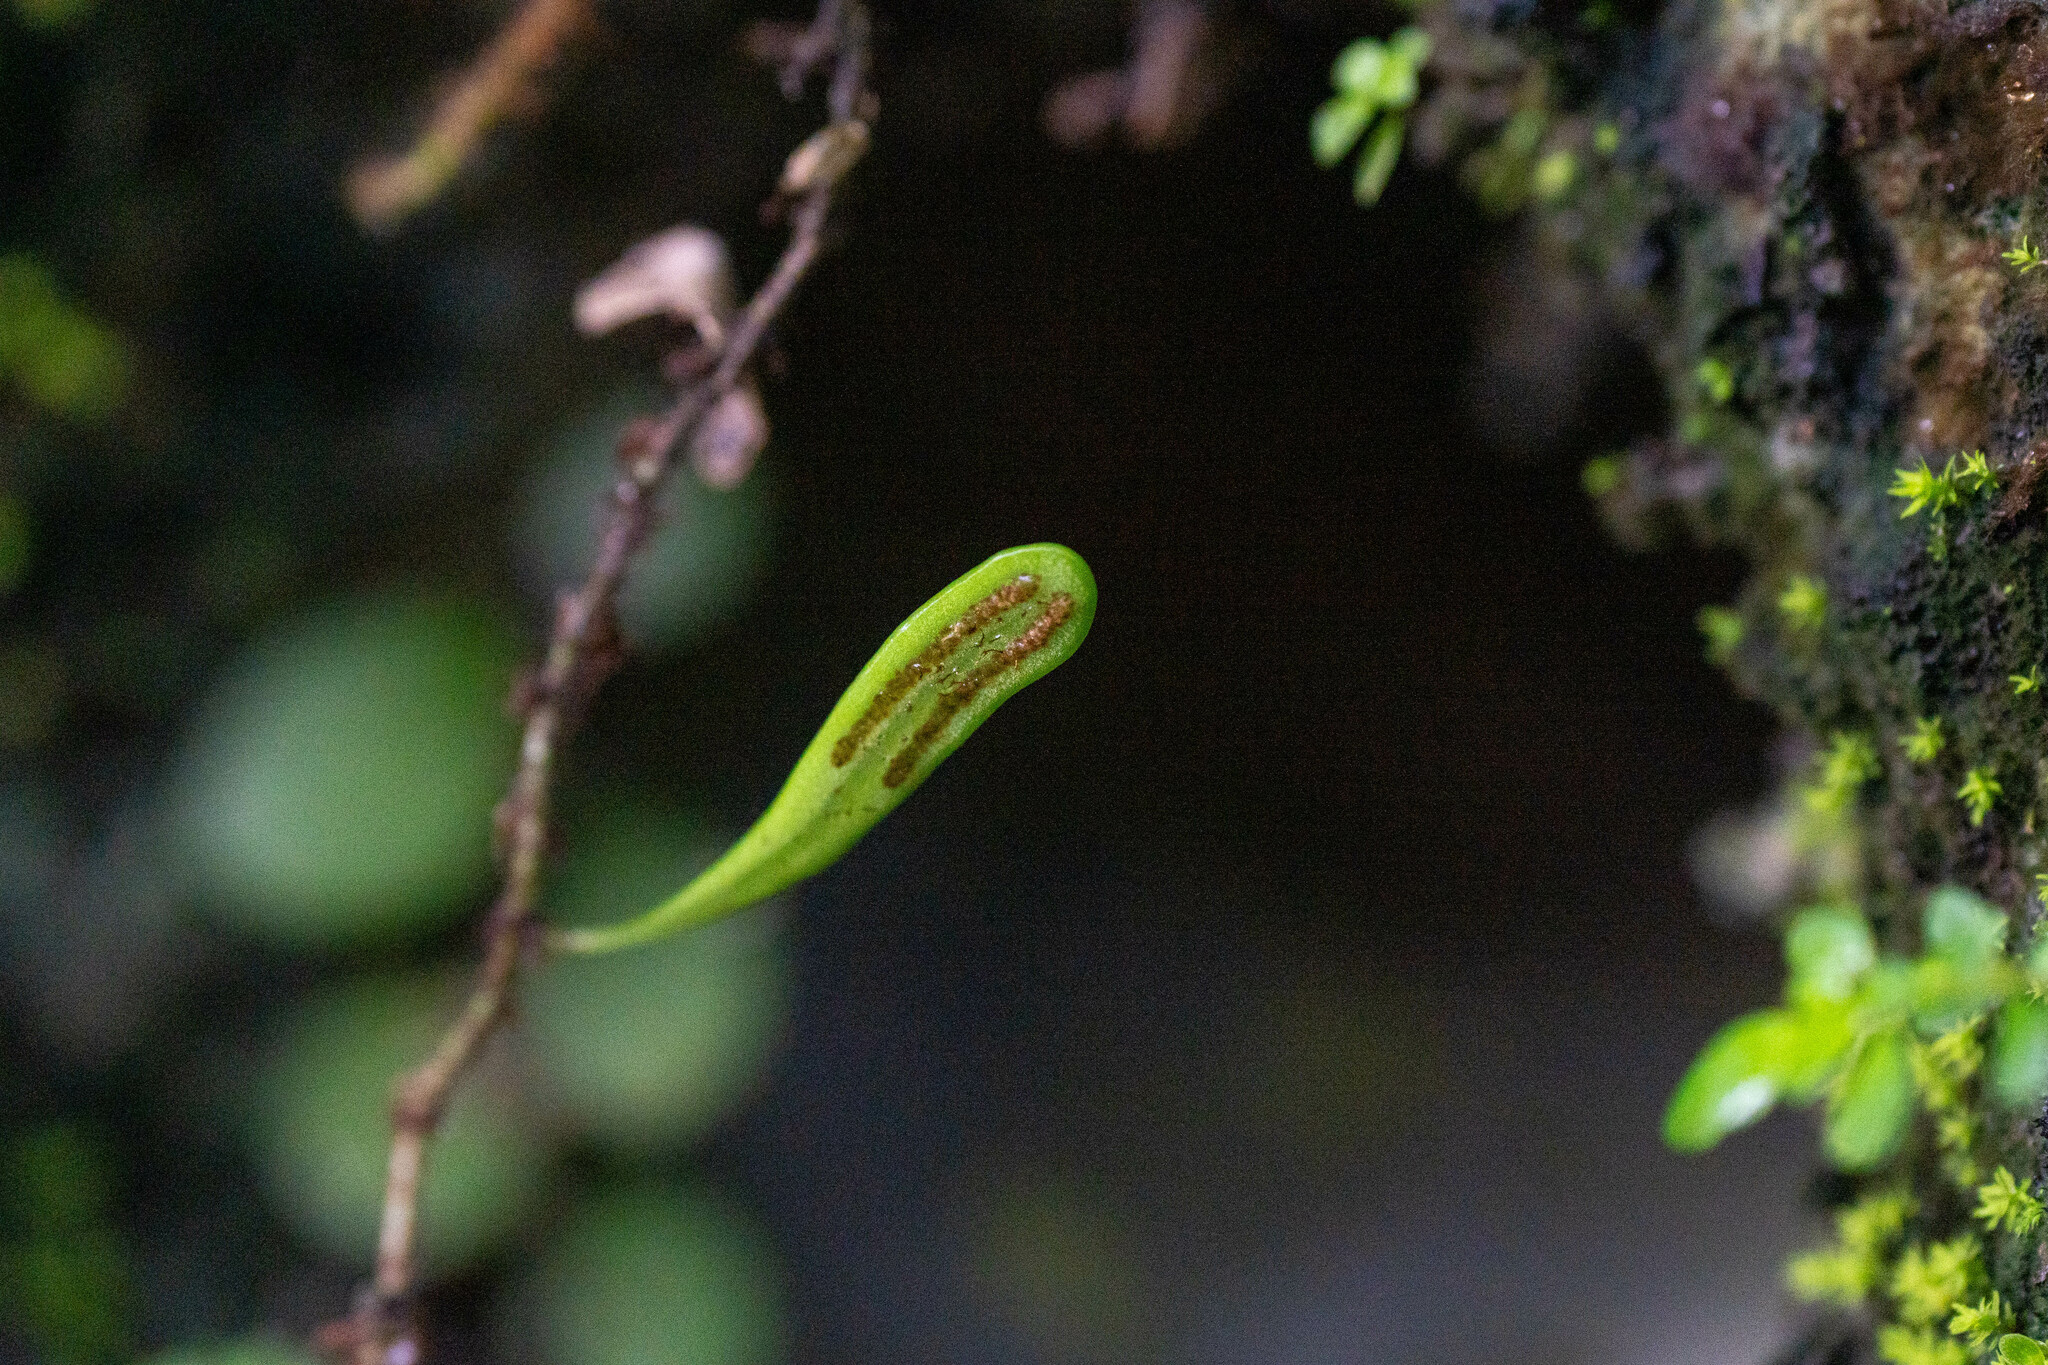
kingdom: Plantae
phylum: Tracheophyta
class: Polypodiopsida
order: Polypodiales
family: Polypodiaceae
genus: Lepisorus
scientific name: Lepisorus microphyllus
